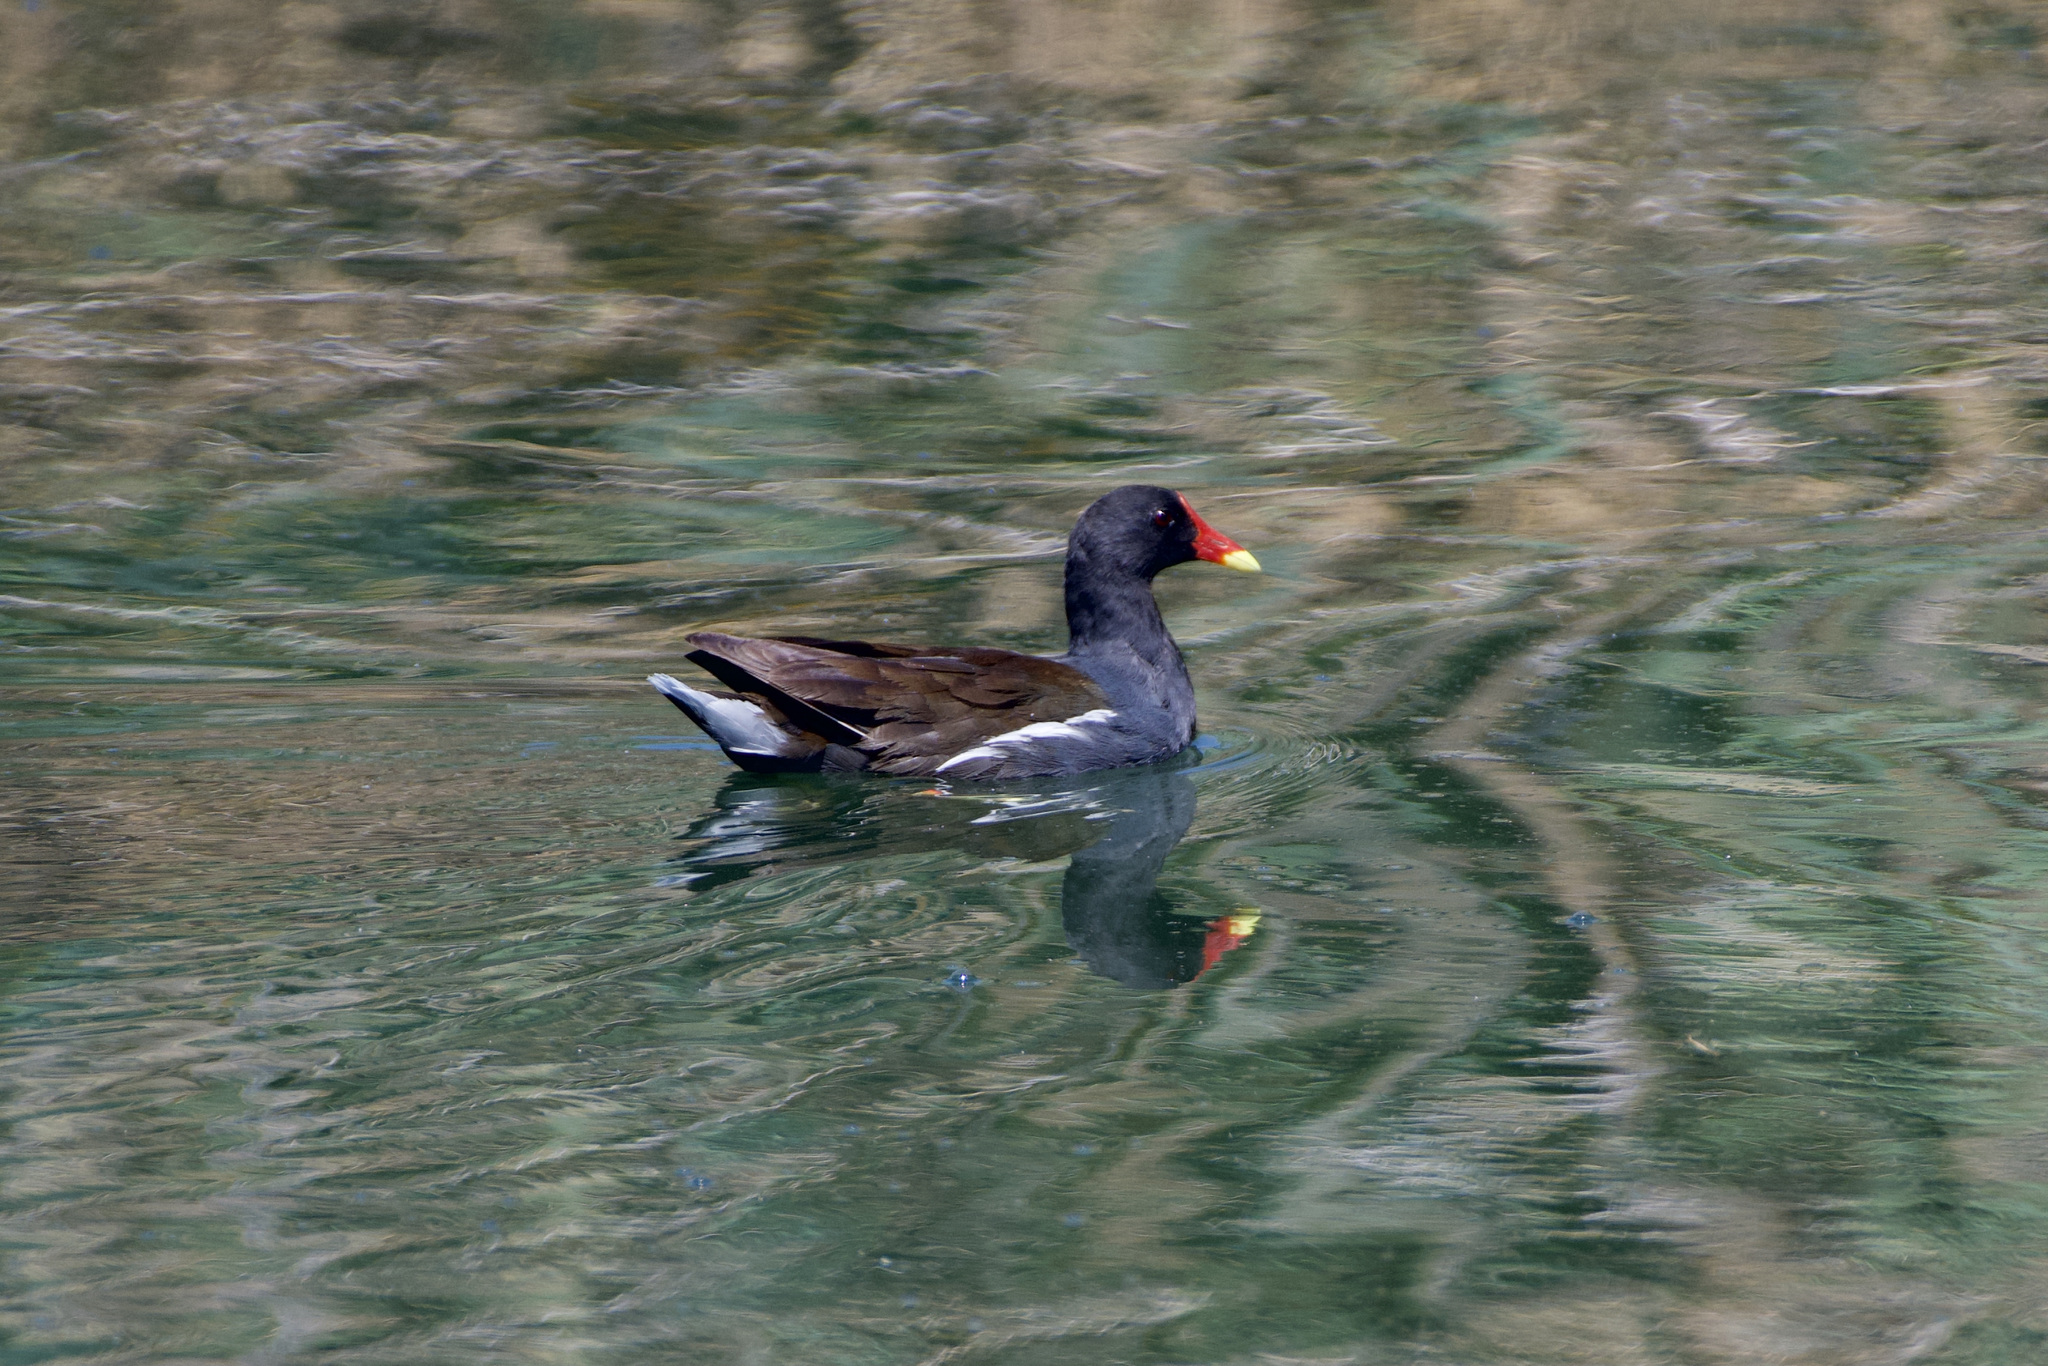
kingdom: Animalia
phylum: Chordata
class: Aves
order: Gruiformes
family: Rallidae
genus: Gallinula
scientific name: Gallinula chloropus
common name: Common moorhen
